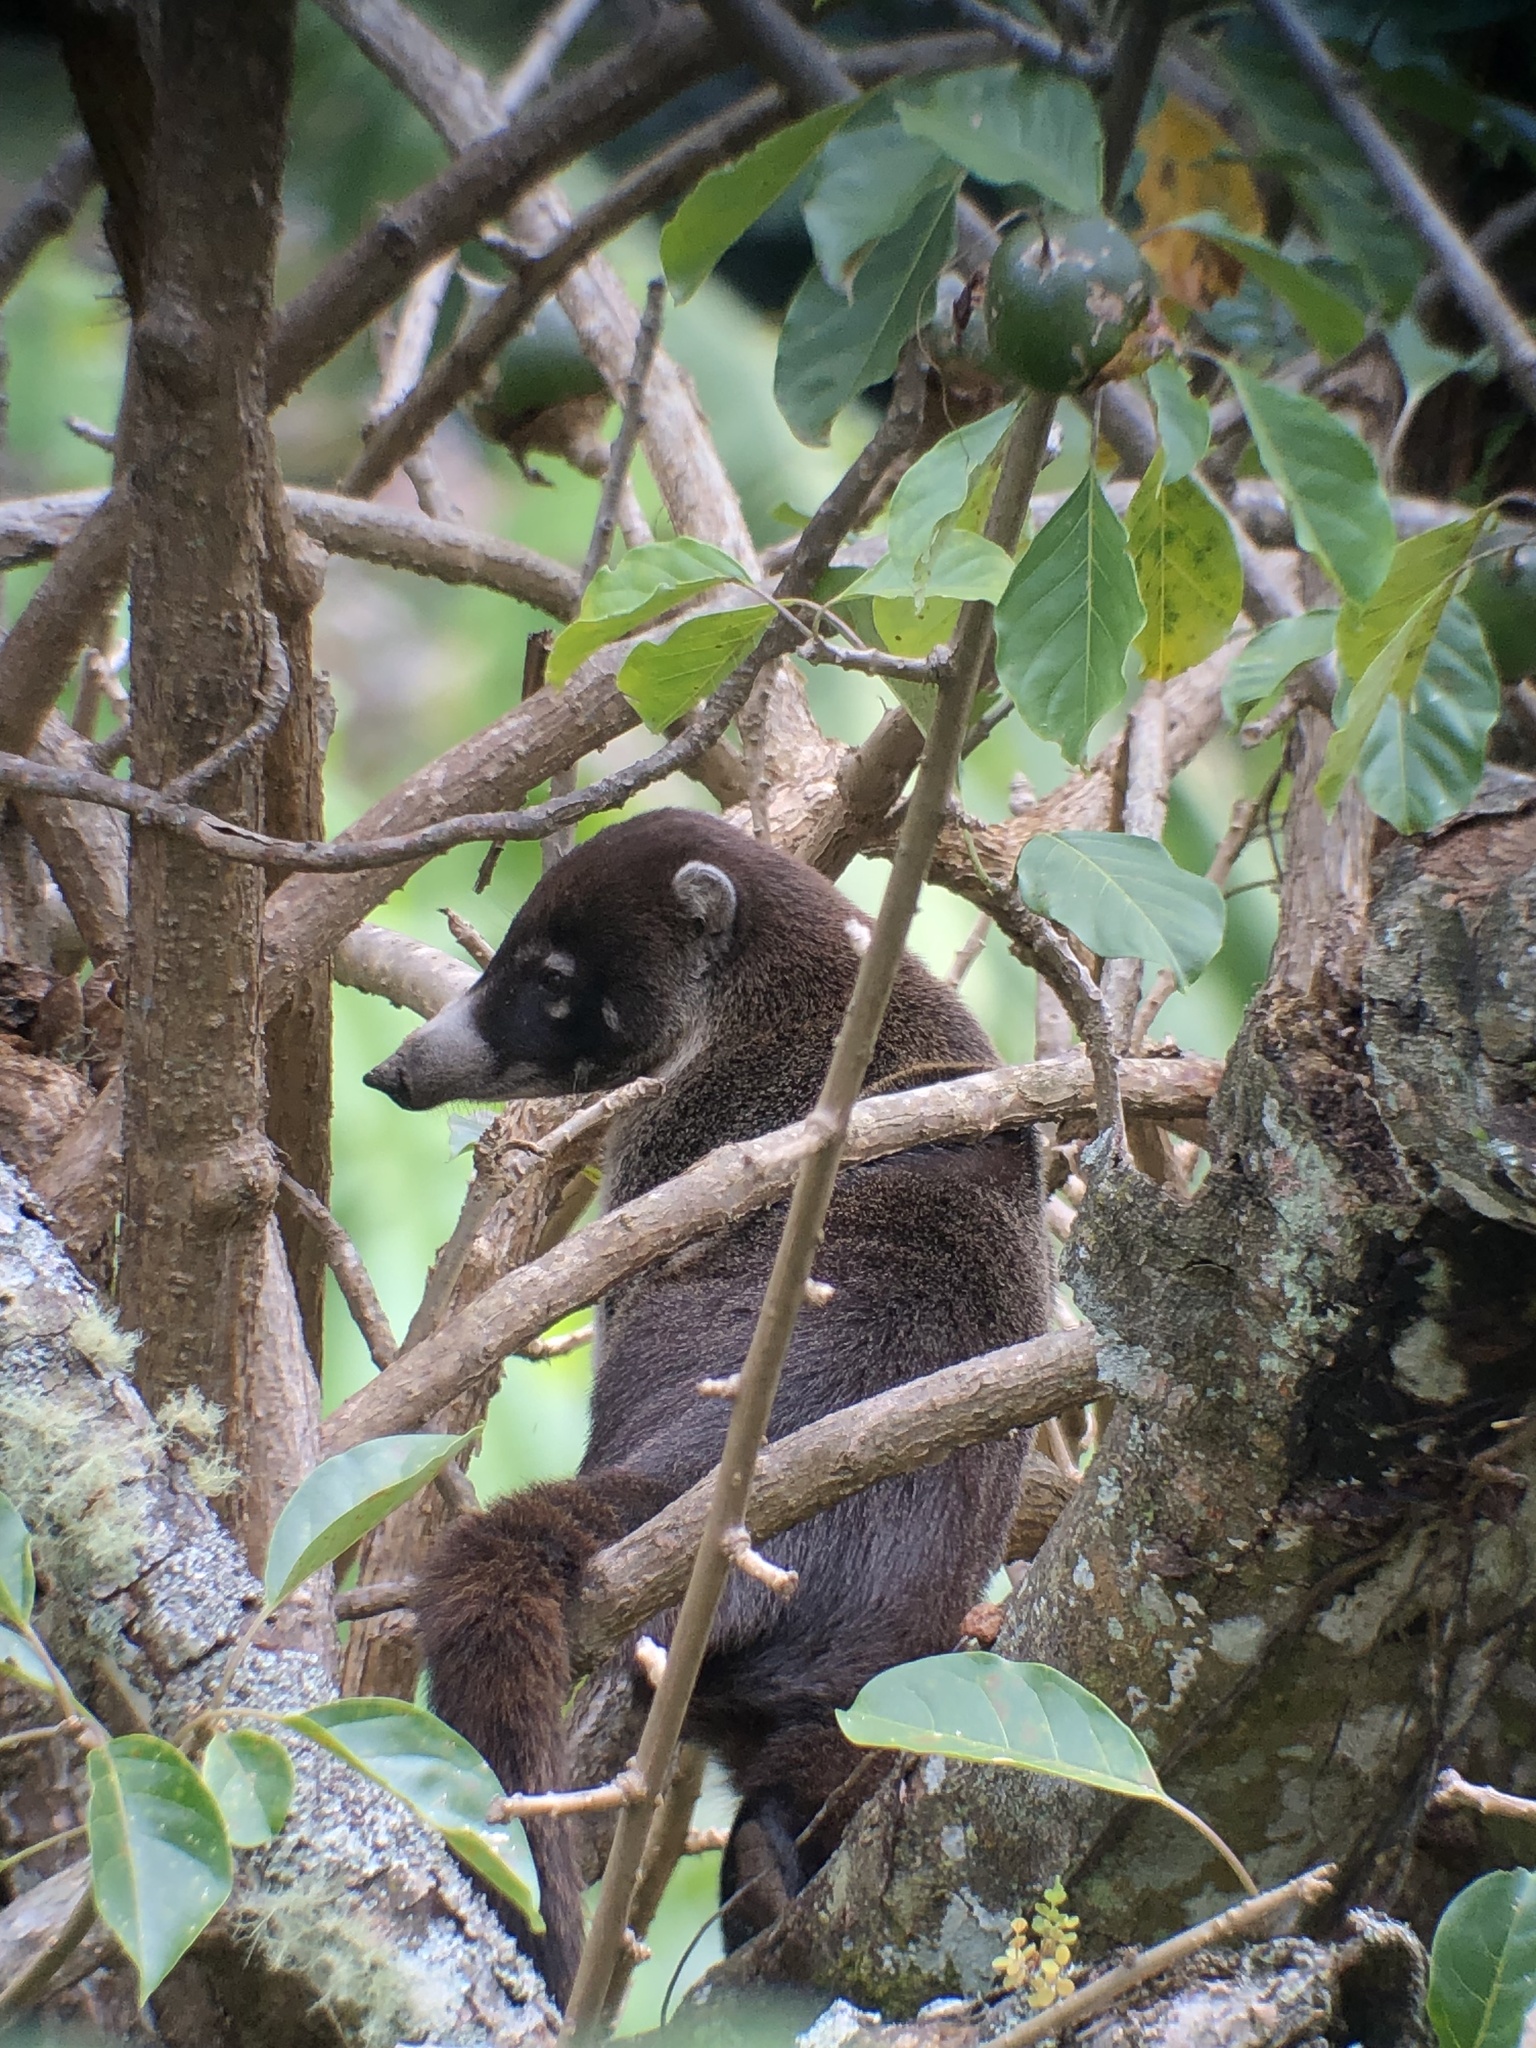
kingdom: Animalia
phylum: Chordata
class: Mammalia
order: Carnivora
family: Procyonidae
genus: Nasua
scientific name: Nasua narica
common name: White-nosed coati
